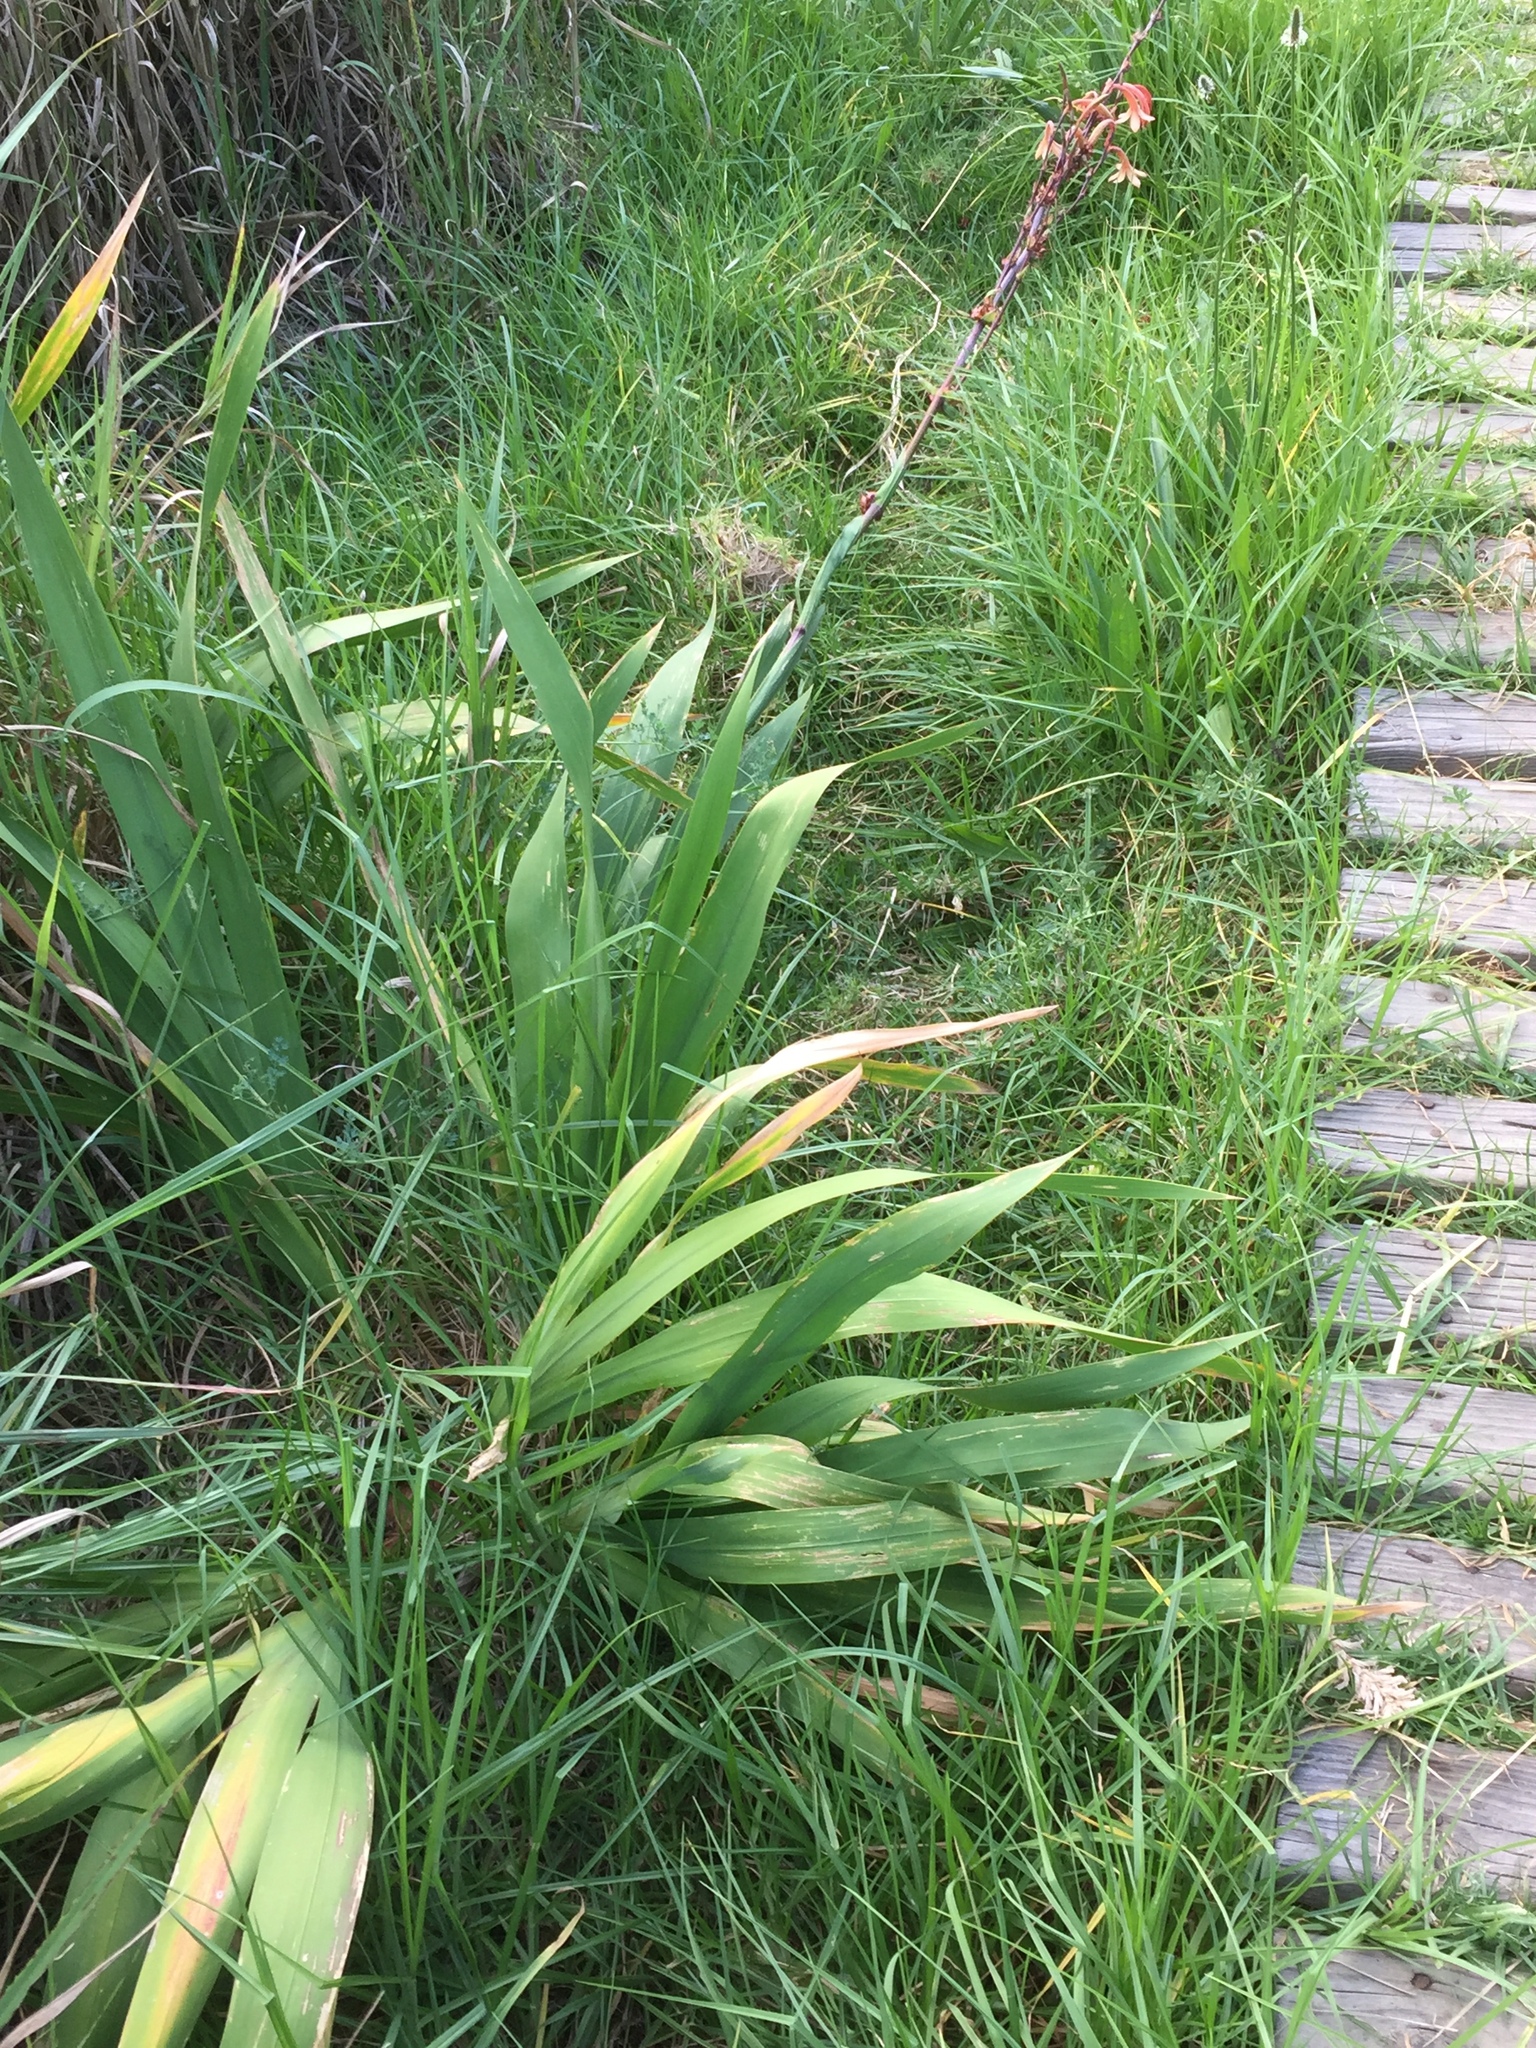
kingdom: Plantae
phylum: Tracheophyta
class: Liliopsida
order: Asparagales
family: Iridaceae
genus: Watsonia
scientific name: Watsonia meriana
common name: Bulbil bugle-lily
